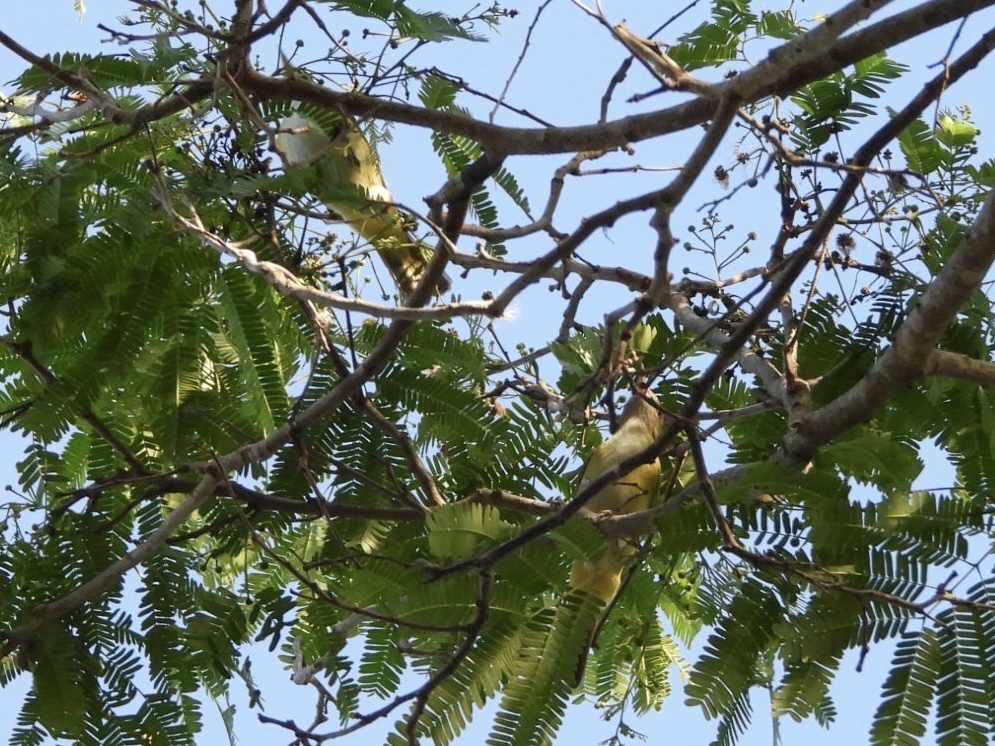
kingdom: Animalia
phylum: Chordata
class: Aves
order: Passeriformes
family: Vireonidae
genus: Vireo
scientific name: Vireo flavoviridis
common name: Yellow-green vireo
